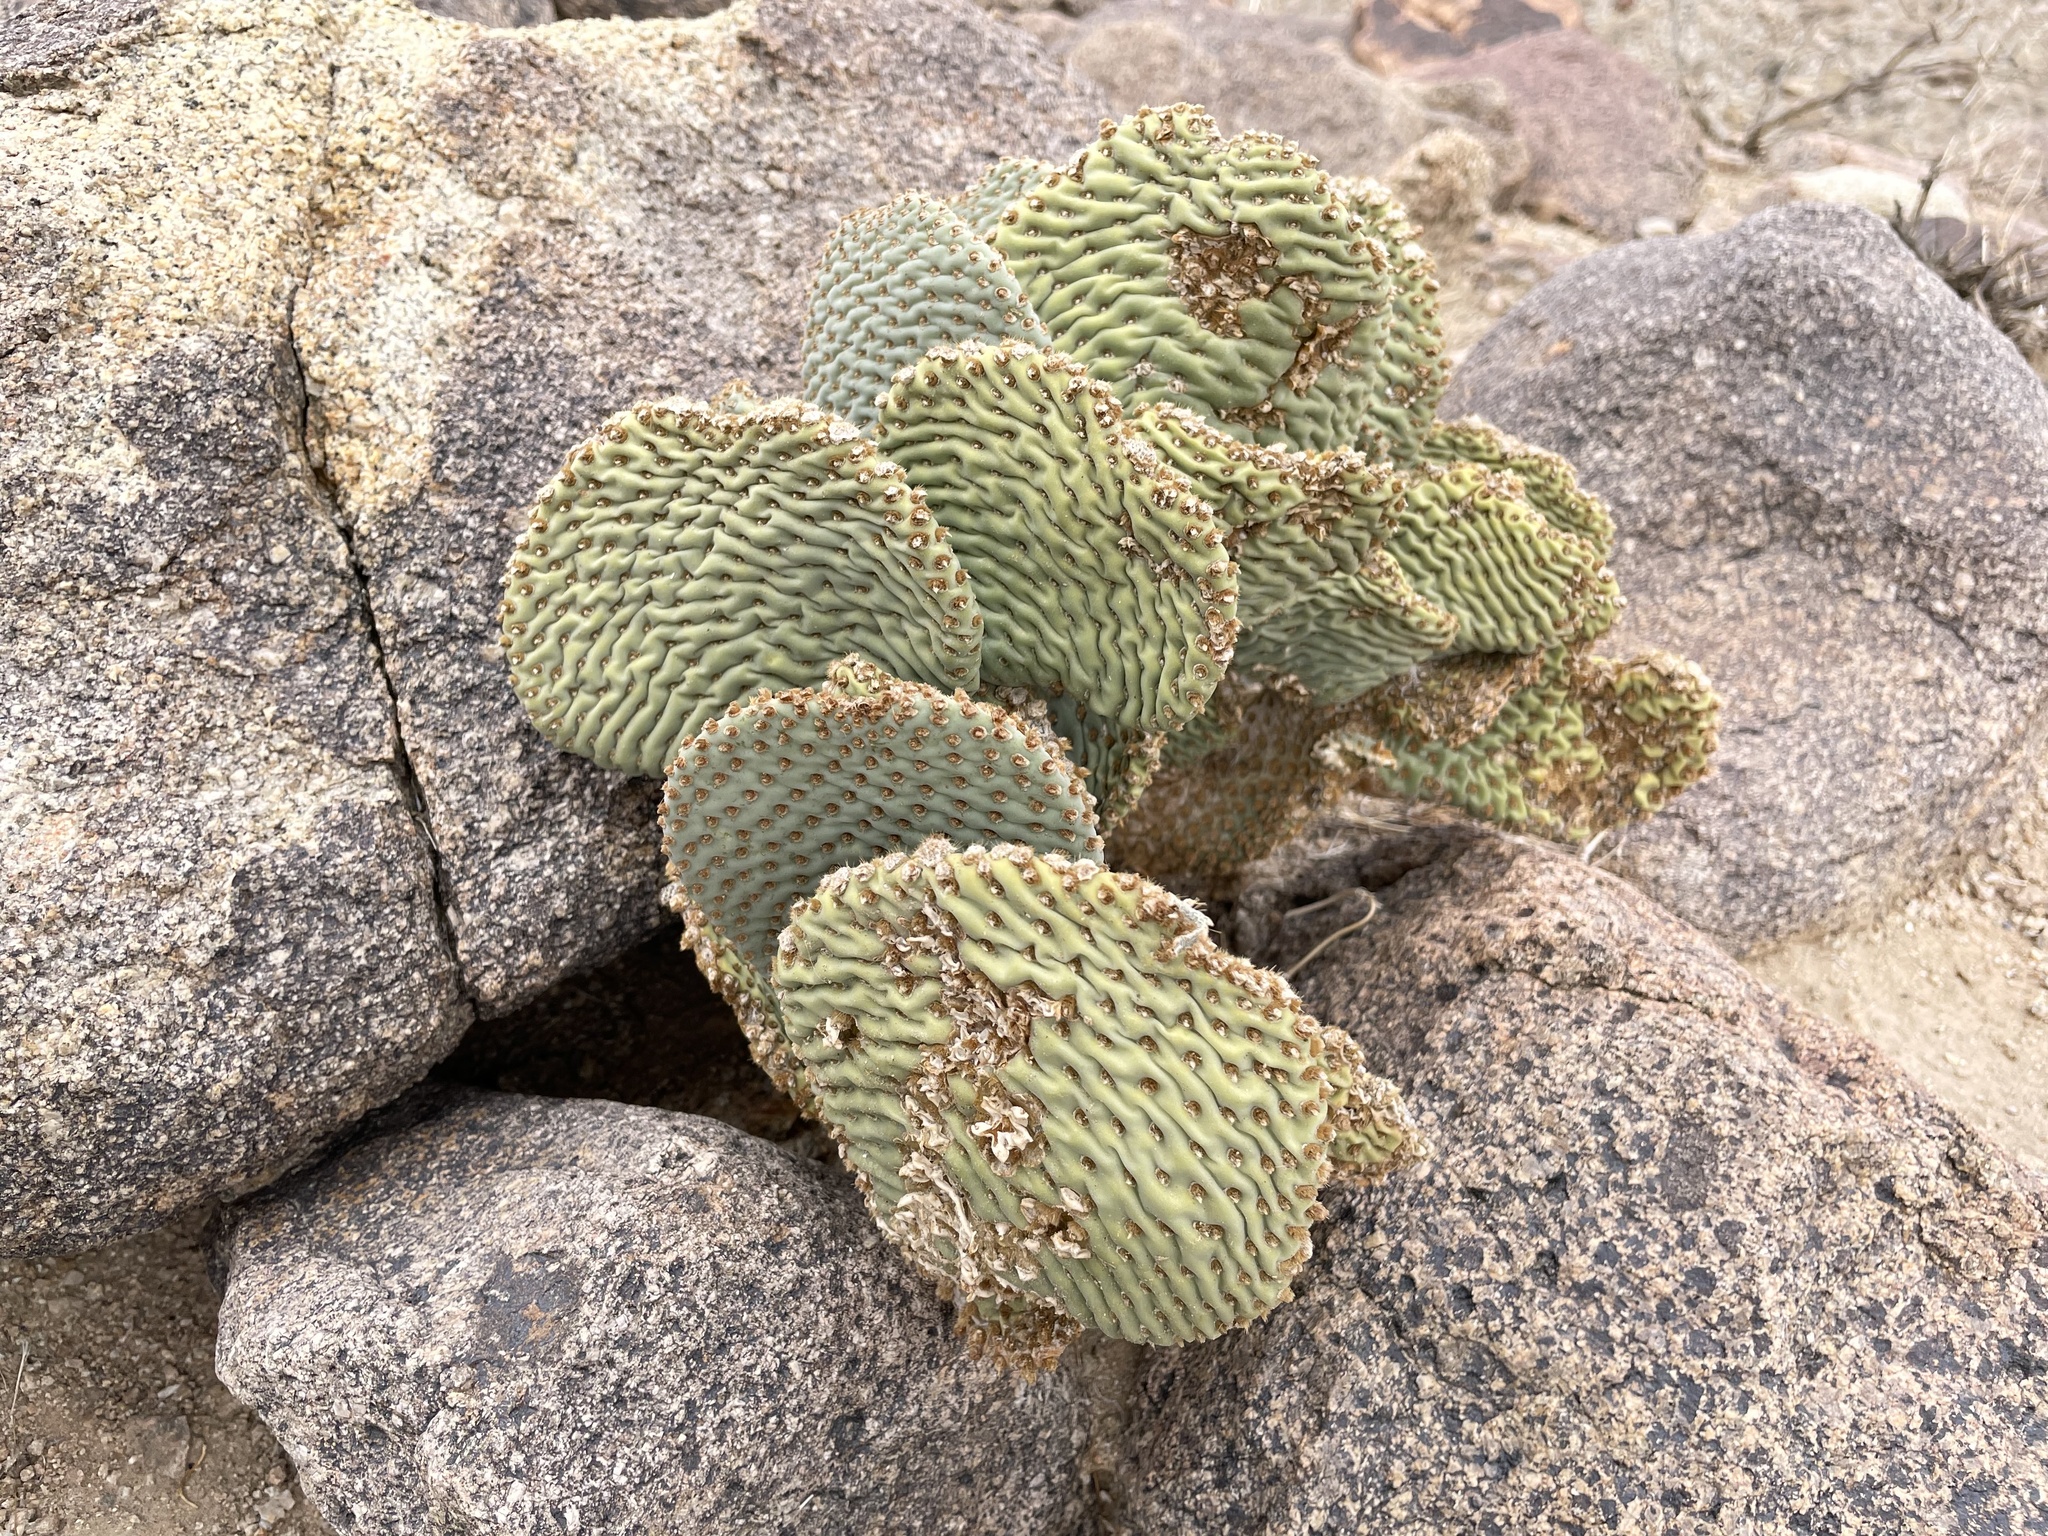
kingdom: Plantae
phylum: Tracheophyta
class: Magnoliopsida
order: Caryophyllales
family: Cactaceae
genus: Opuntia
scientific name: Opuntia basilaris
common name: Beavertail prickly-pear
